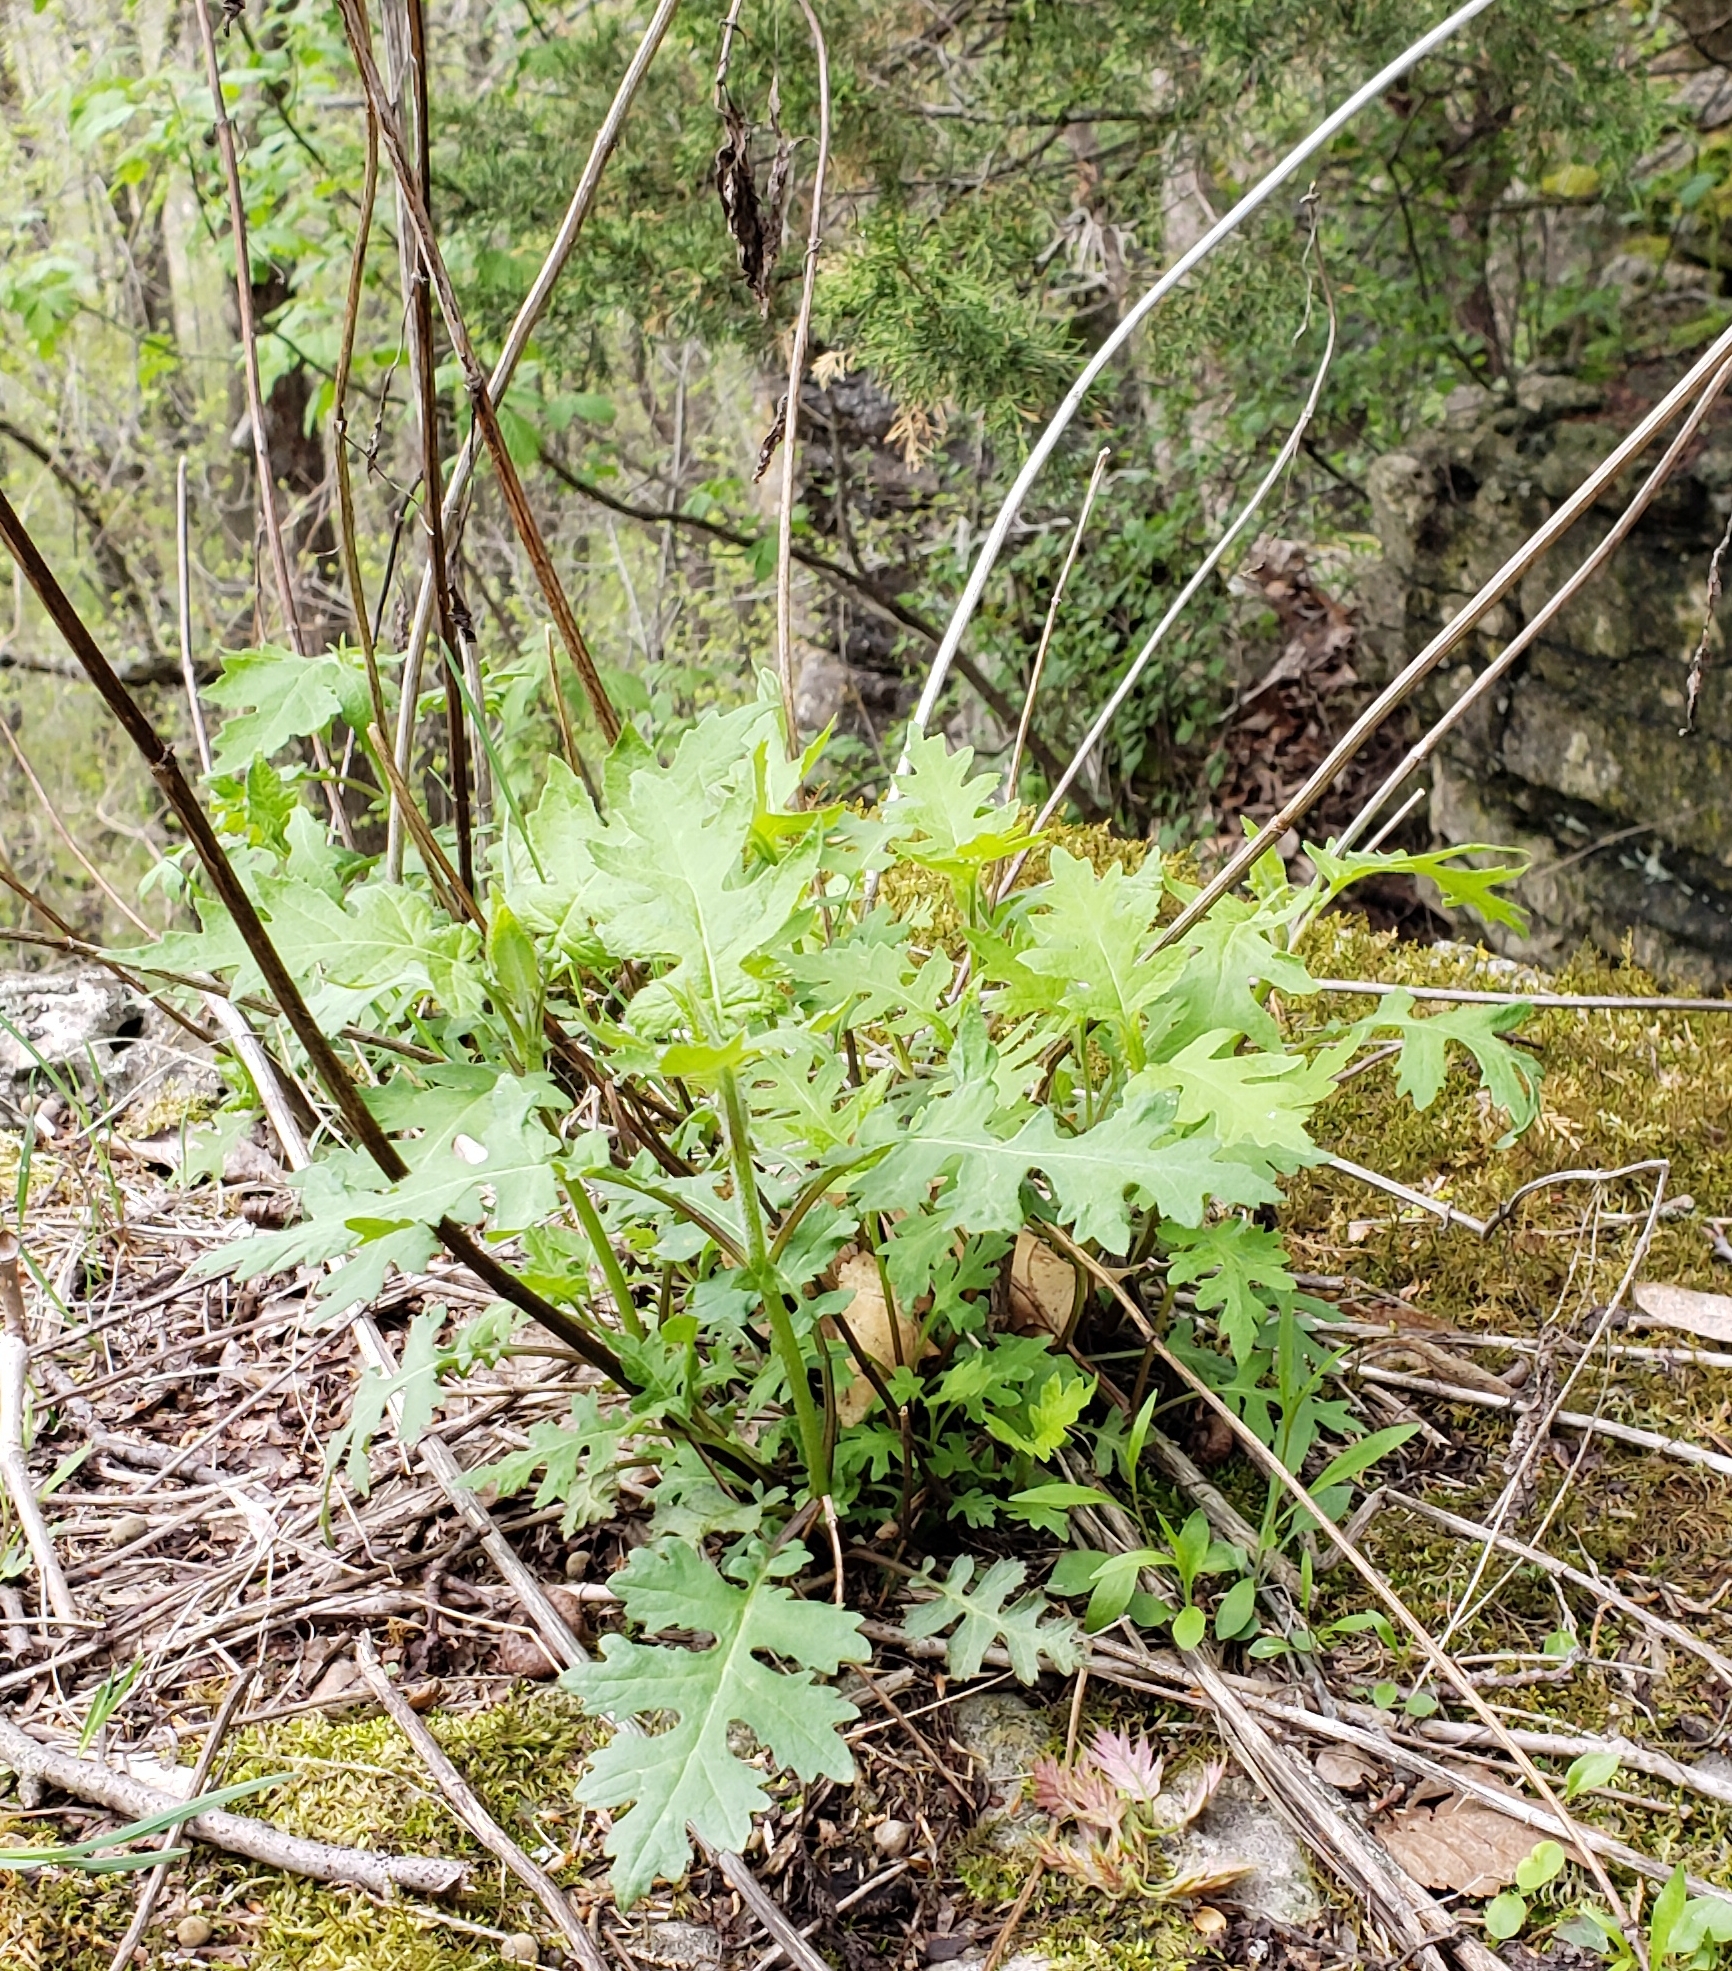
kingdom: Plantae
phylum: Tracheophyta
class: Magnoliopsida
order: Asterales
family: Asteraceae
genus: Polymnia
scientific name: Polymnia canadensis
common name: Pale-flowered leafcup
